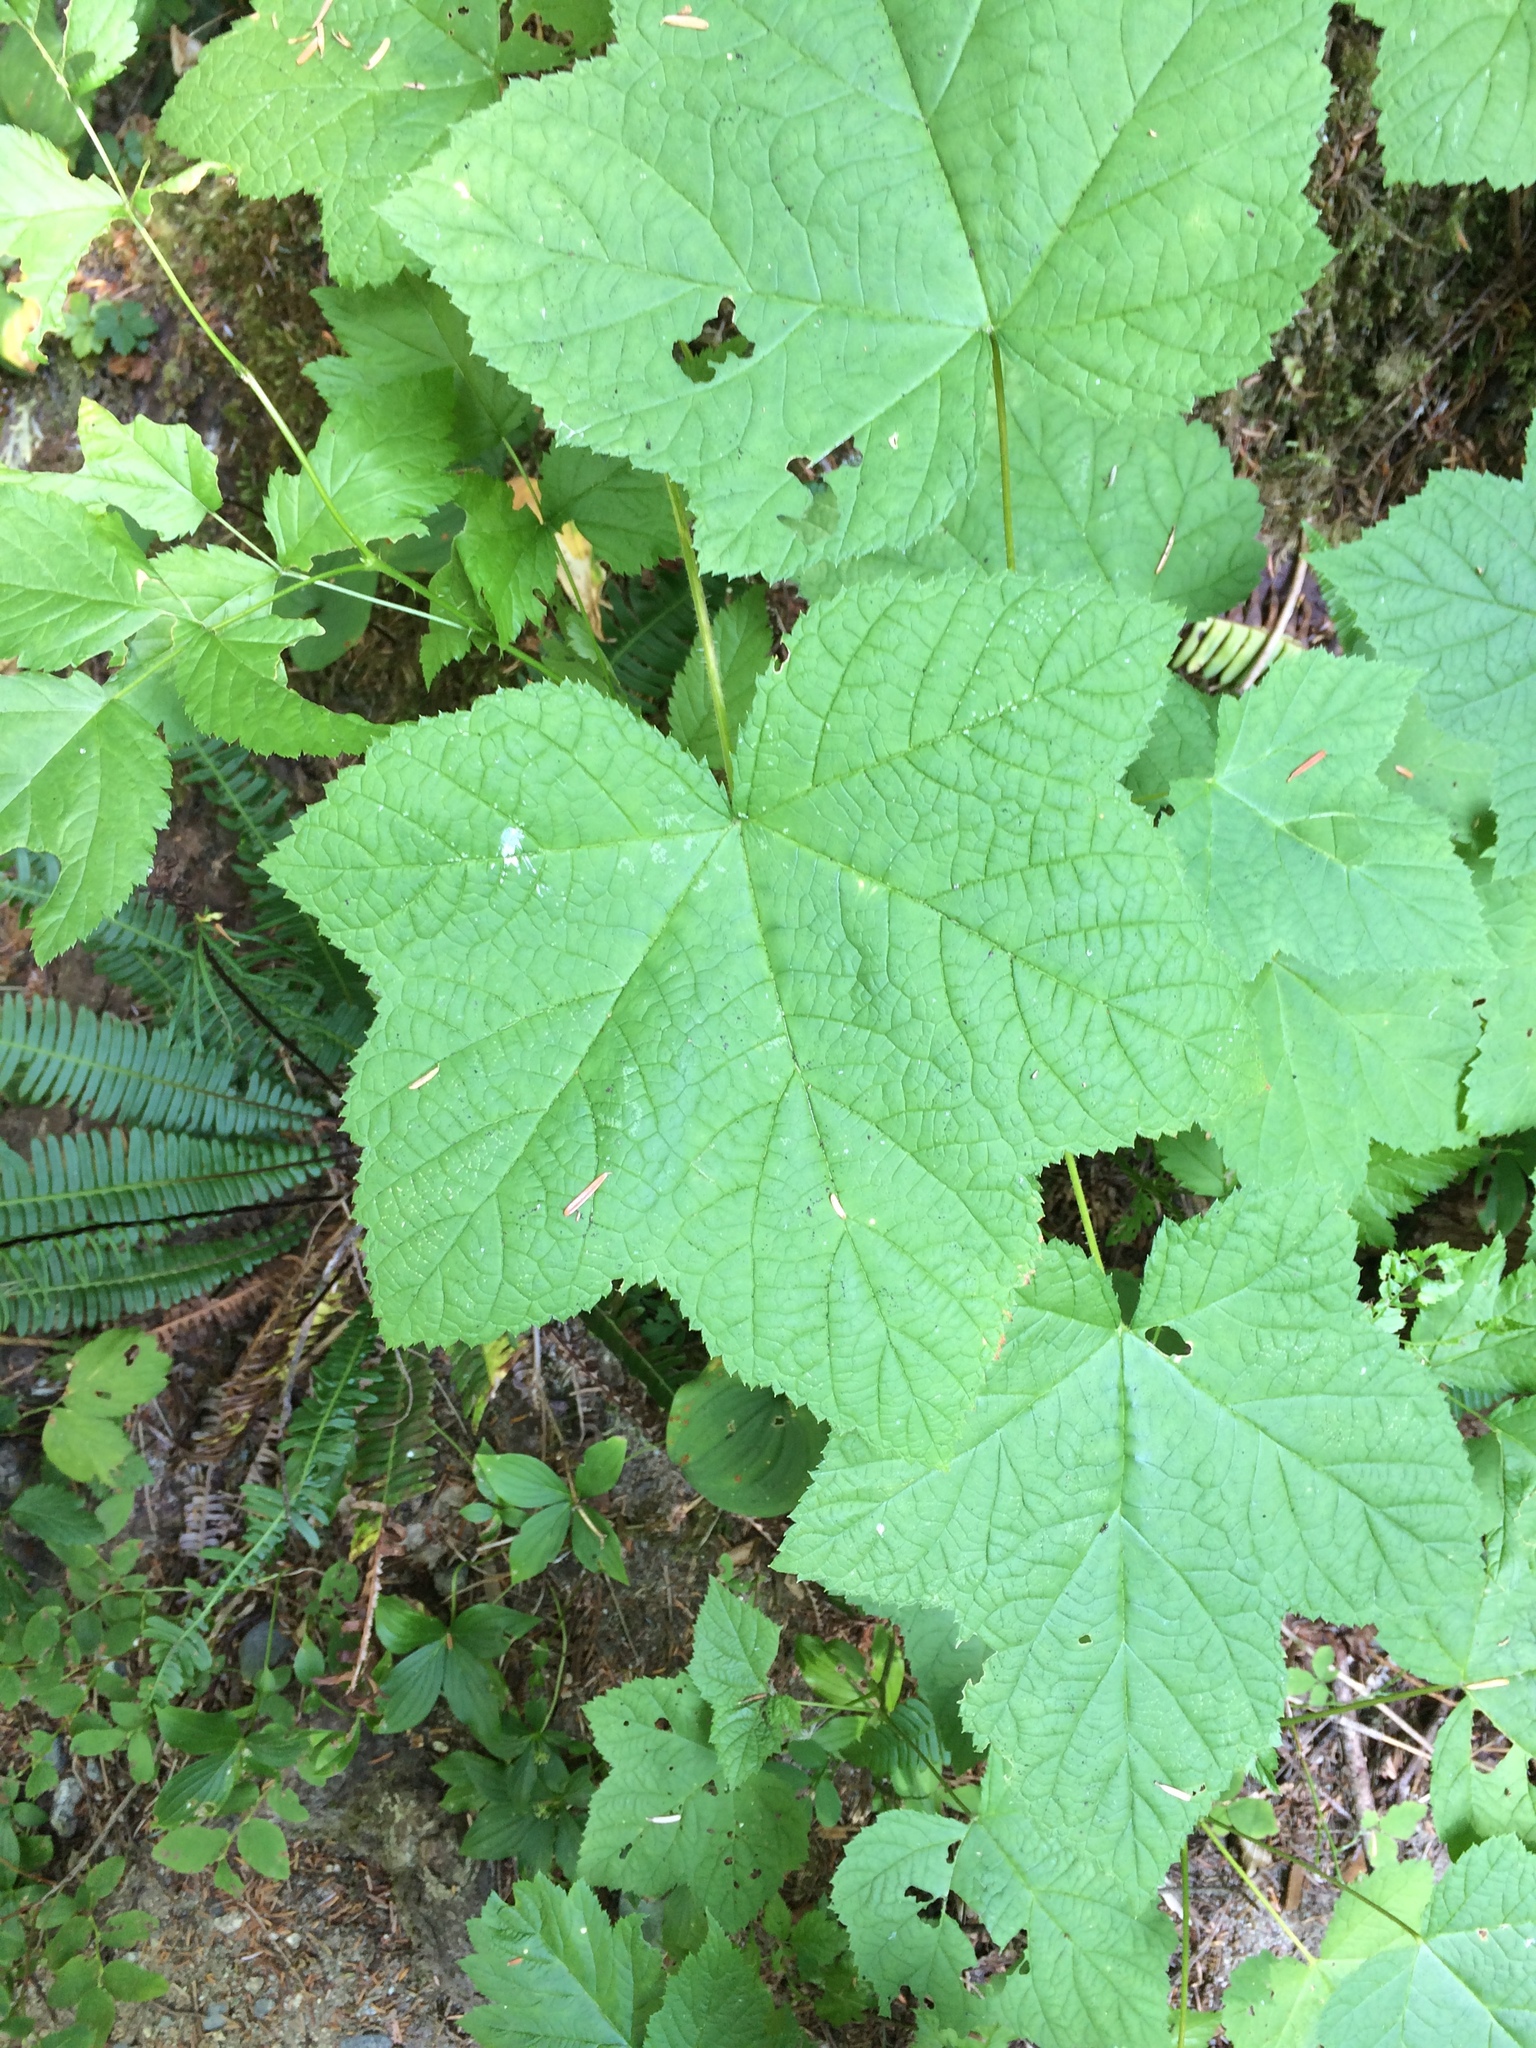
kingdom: Plantae
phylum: Tracheophyta
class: Magnoliopsida
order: Rosales
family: Rosaceae
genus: Rubus
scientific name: Rubus parviflorus
